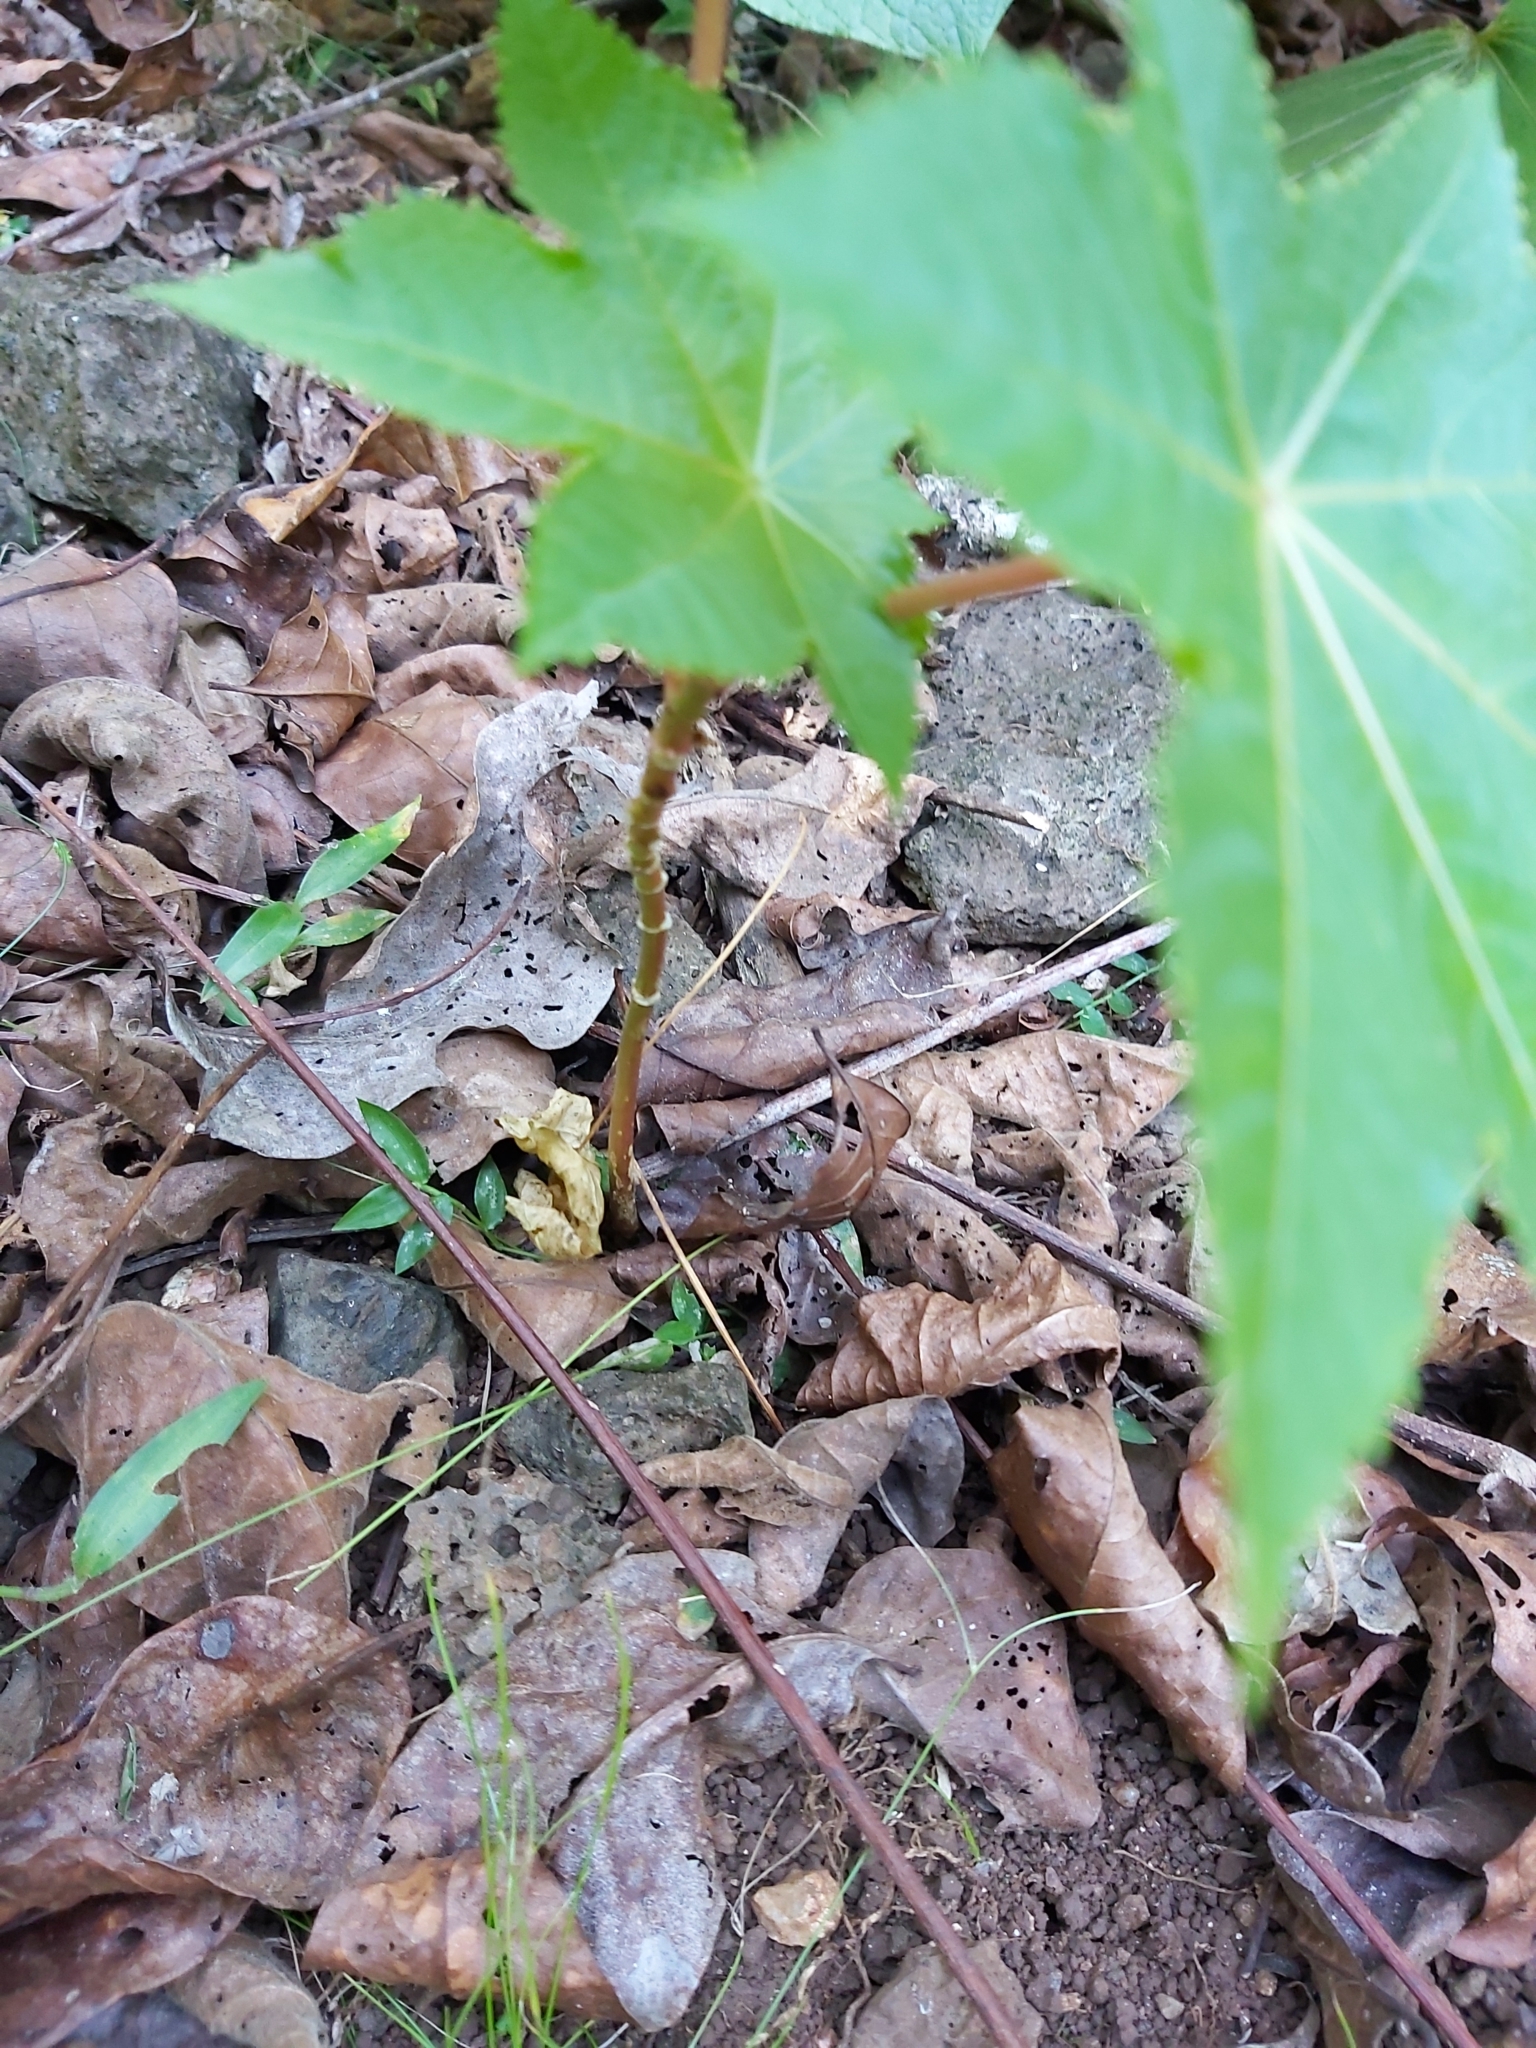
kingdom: Plantae
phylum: Tracheophyta
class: Magnoliopsida
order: Malpighiales
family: Euphorbiaceae
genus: Ricinus
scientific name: Ricinus communis
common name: Castor-oil-plant
